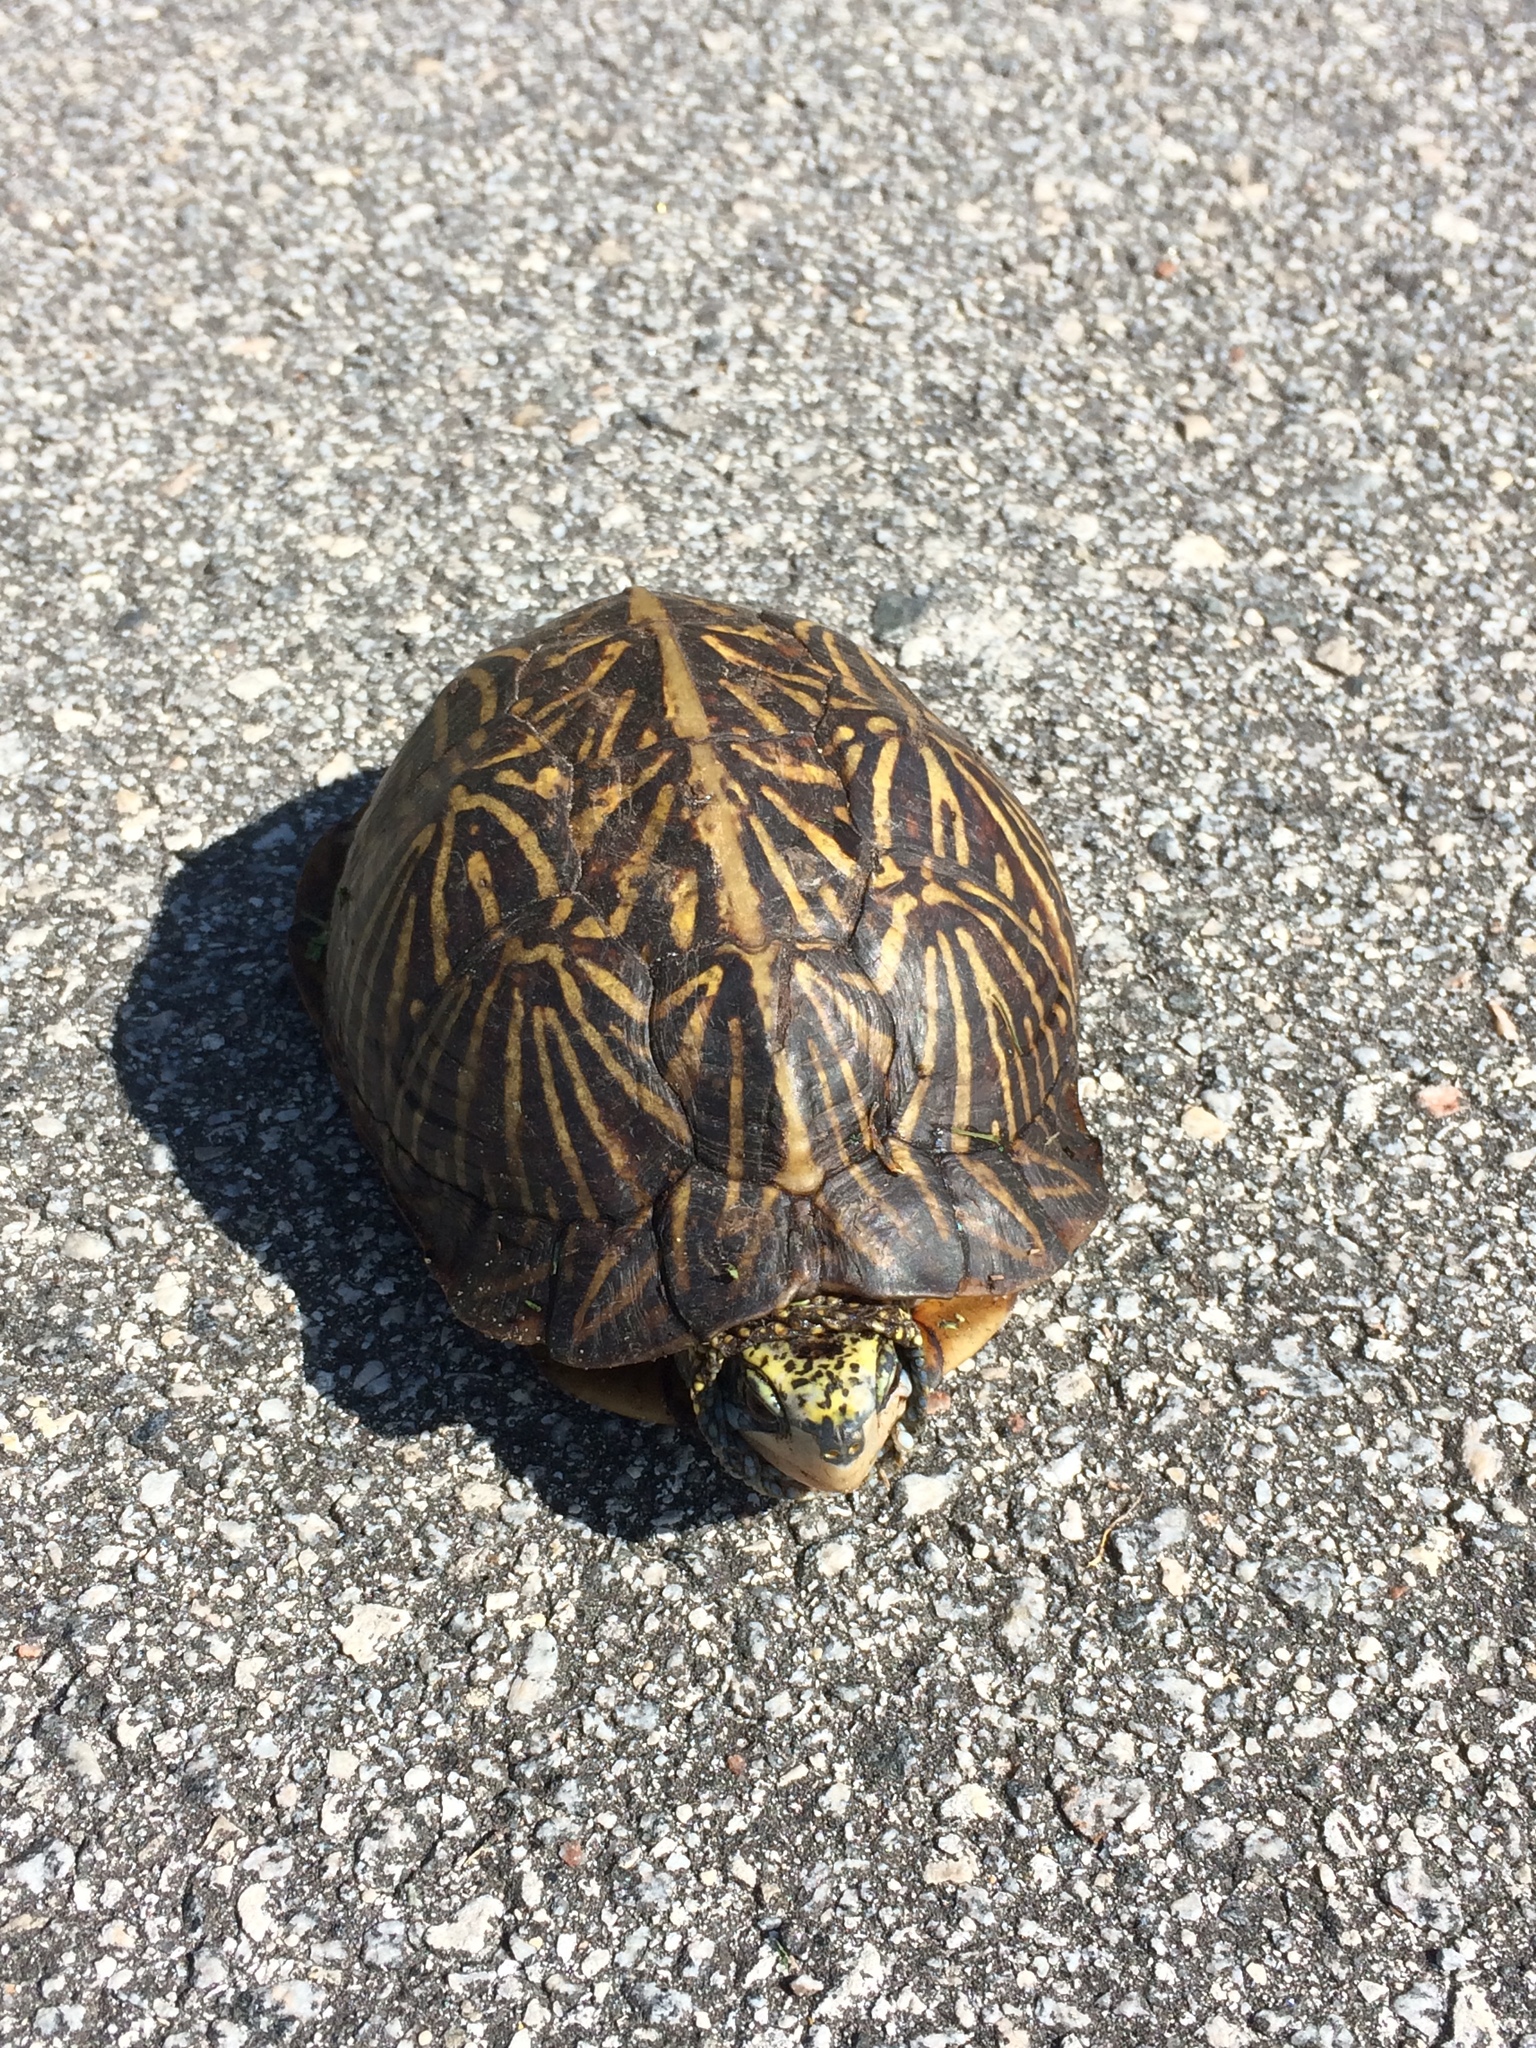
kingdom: Animalia
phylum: Chordata
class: Testudines
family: Emydidae
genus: Terrapene
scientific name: Terrapene carolina
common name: Common box turtle
